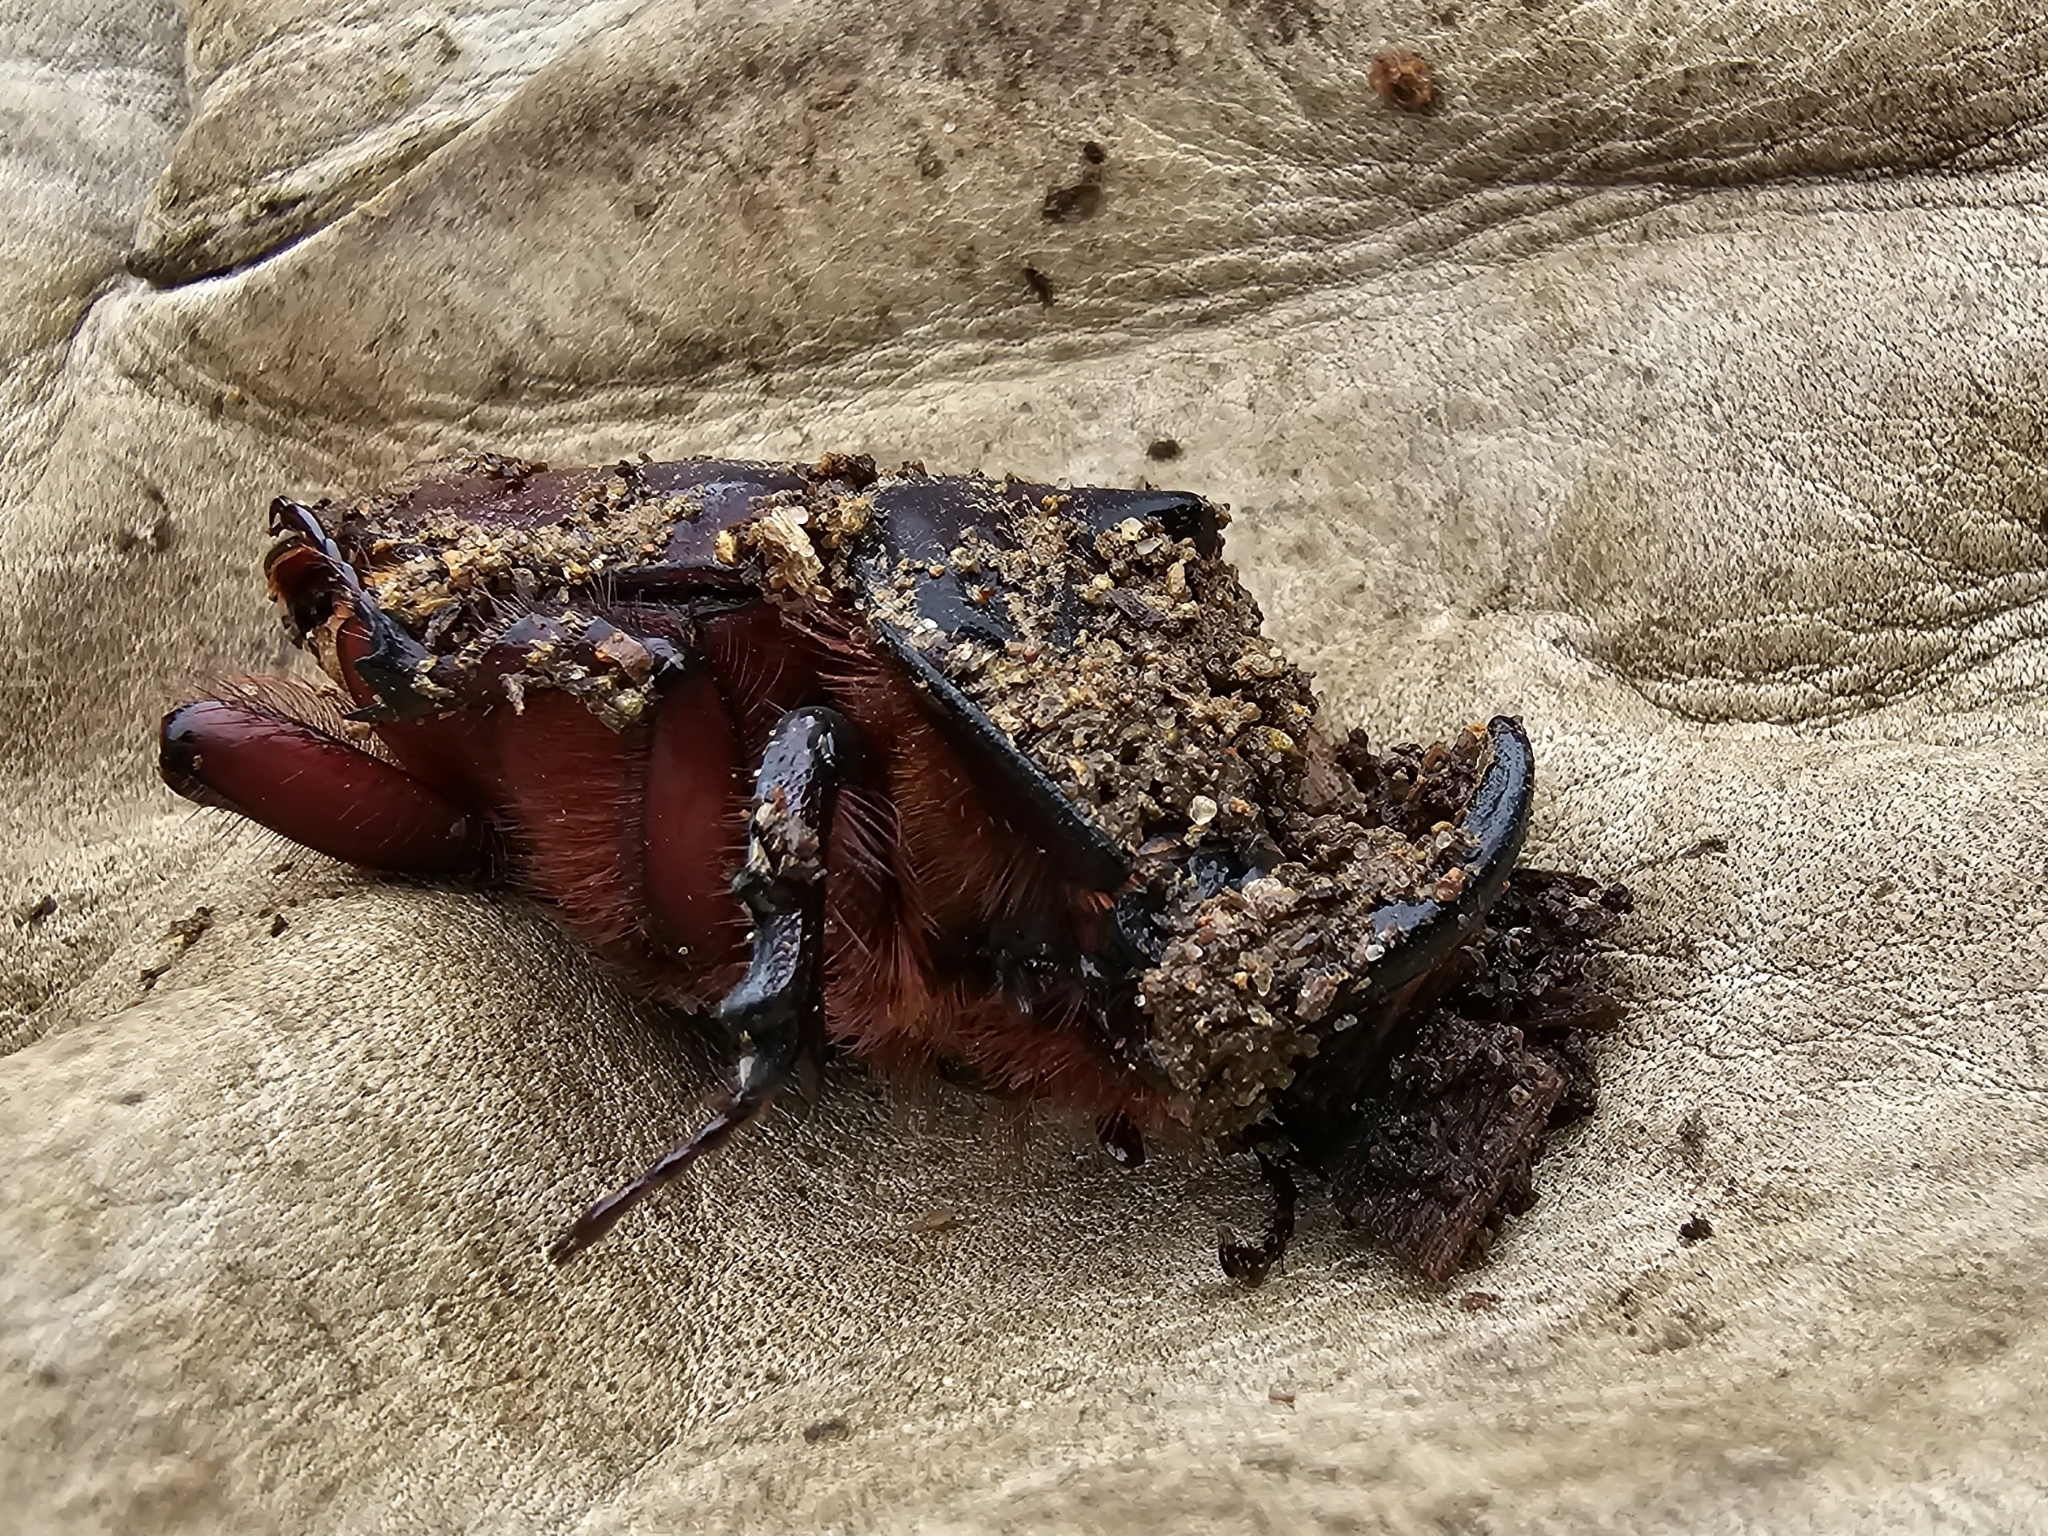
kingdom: Animalia
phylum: Arthropoda
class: Insecta
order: Coleoptera
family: Scarabaeidae
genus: Oryctes
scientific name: Oryctes nasicornis
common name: European rhinoceros beetle
